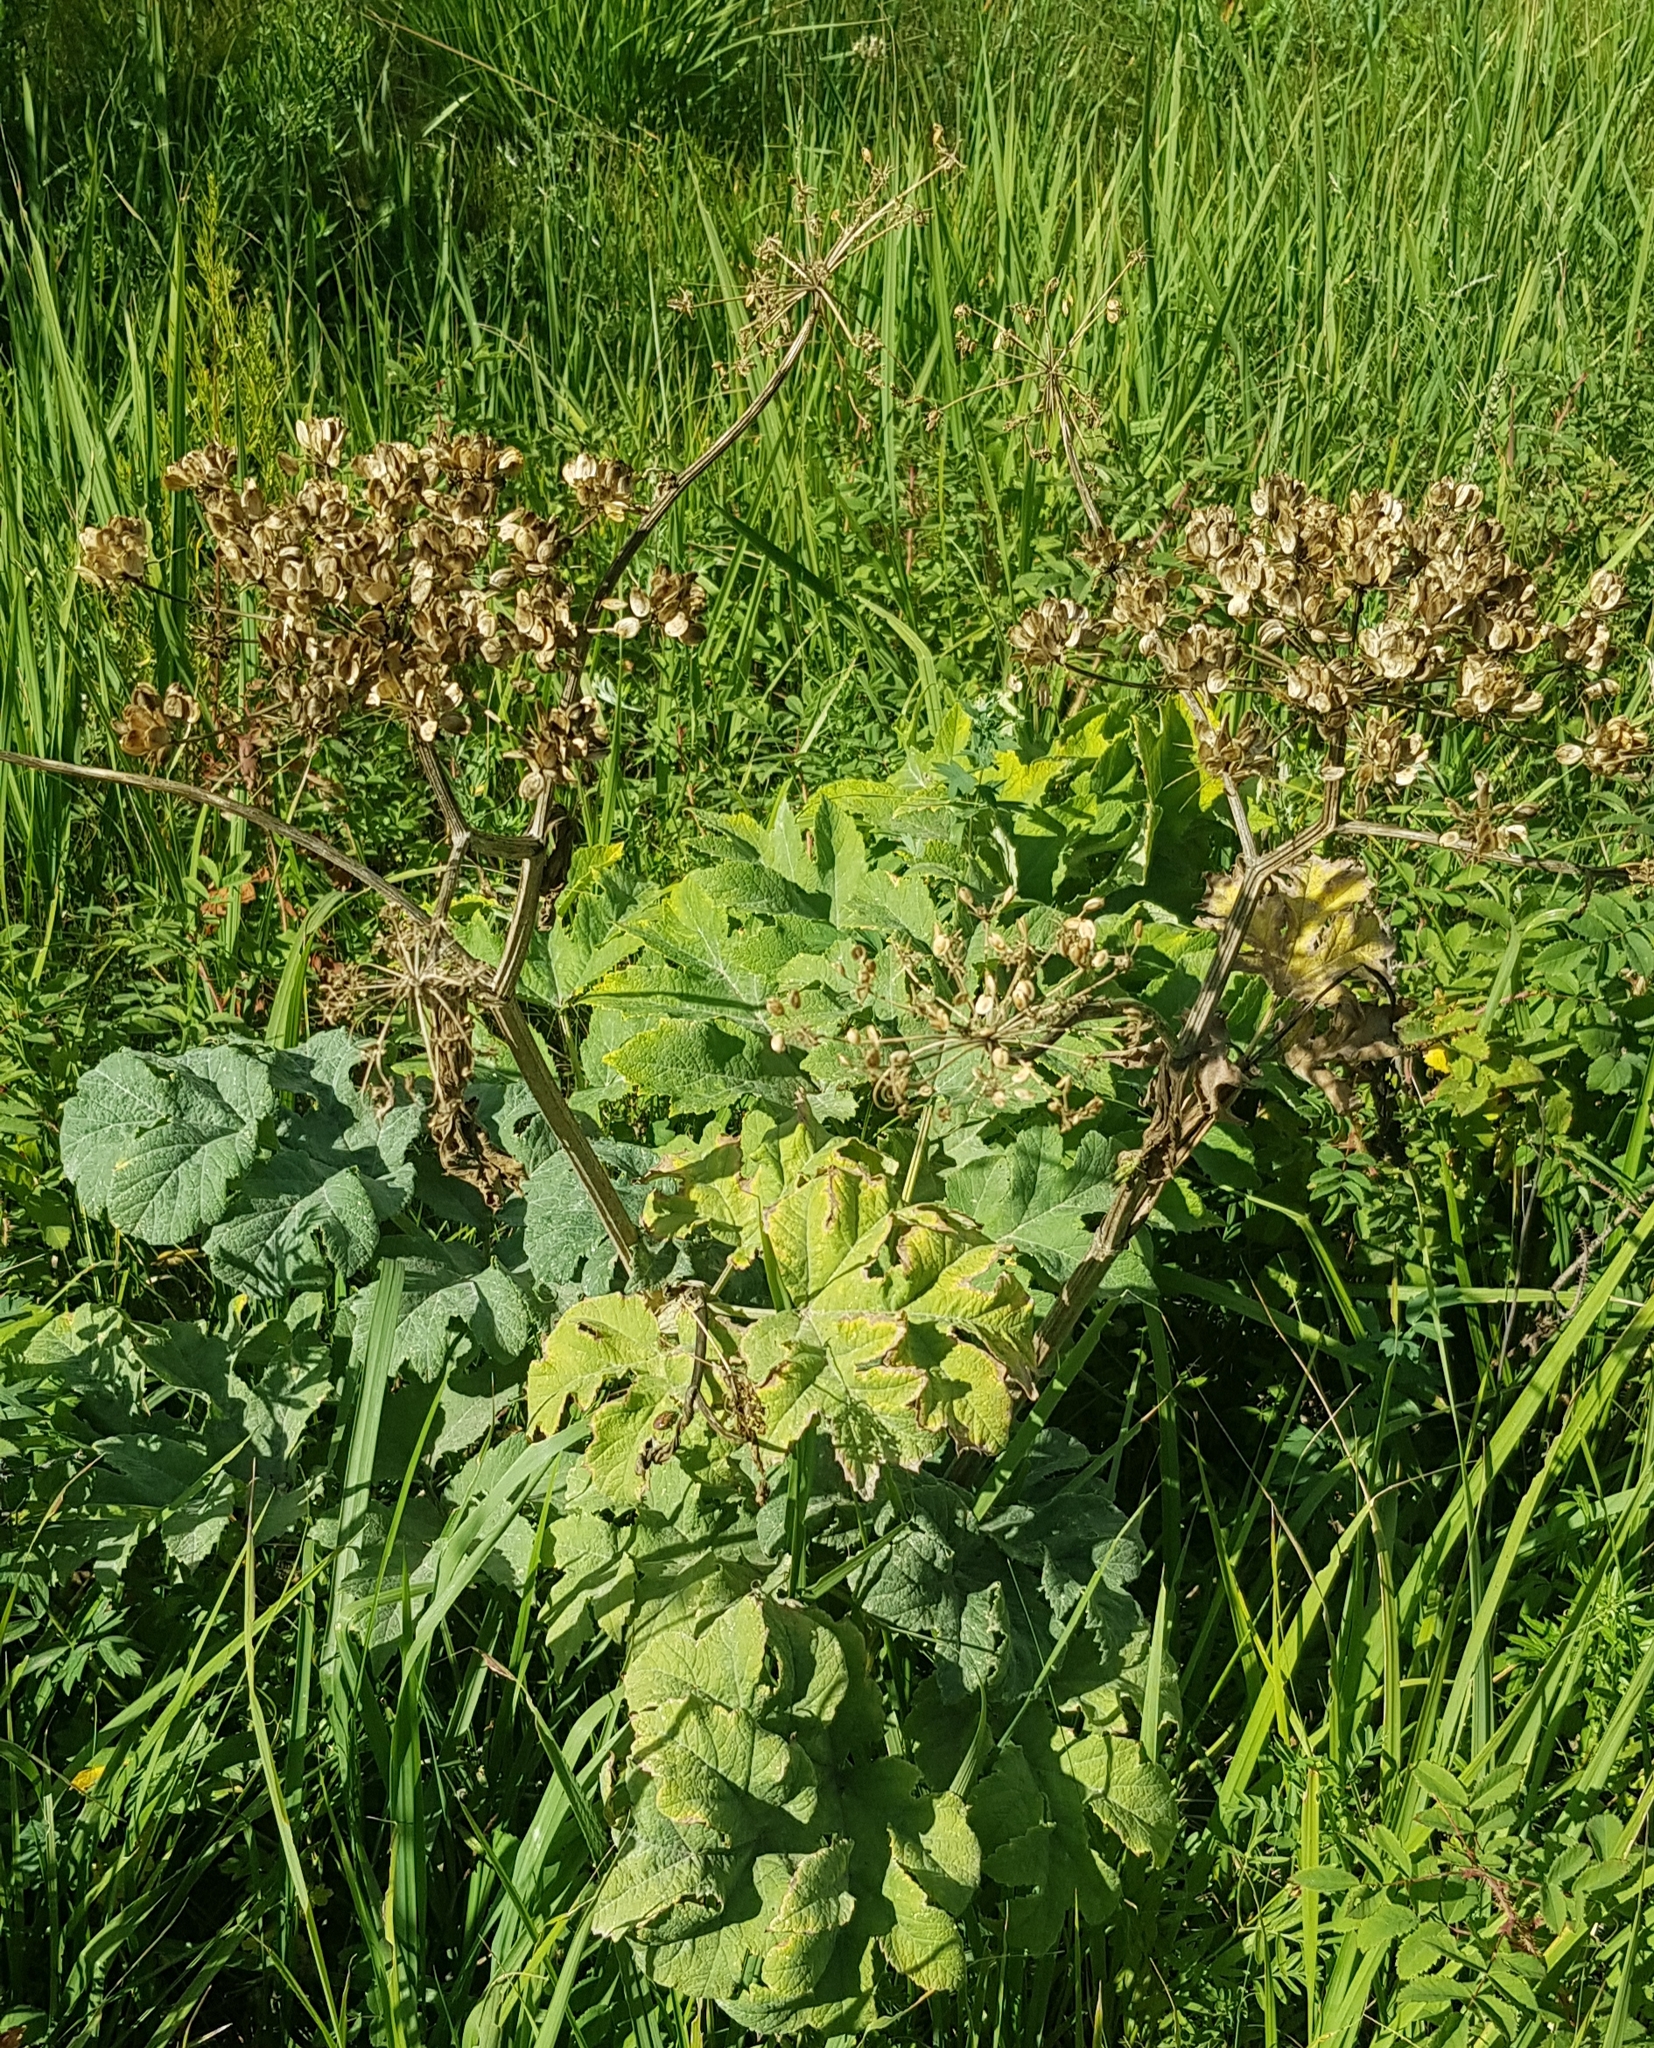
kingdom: Plantae
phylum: Tracheophyta
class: Magnoliopsida
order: Apiales
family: Apiaceae
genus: Heracleum
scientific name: Heracleum dissectum
